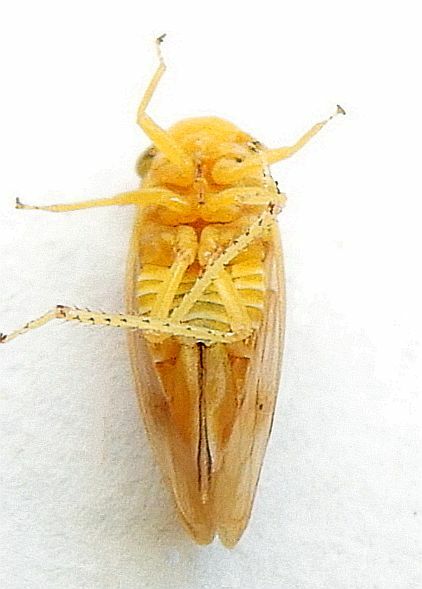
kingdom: Animalia
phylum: Arthropoda
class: Insecta
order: Hemiptera
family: Cicadellidae
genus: Oncopsis
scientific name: Oncopsis citra
